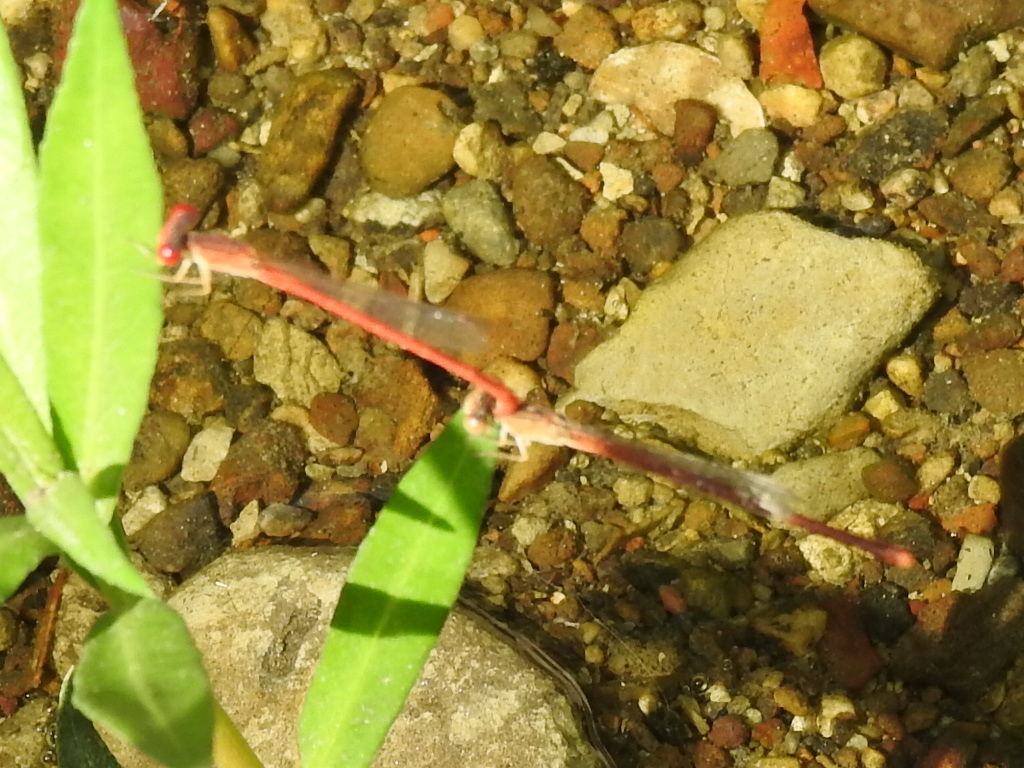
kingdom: Animalia
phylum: Arthropoda
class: Insecta
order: Odonata
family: Coenagrionidae
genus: Telebasis
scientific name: Telebasis salva
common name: Desert firetail
